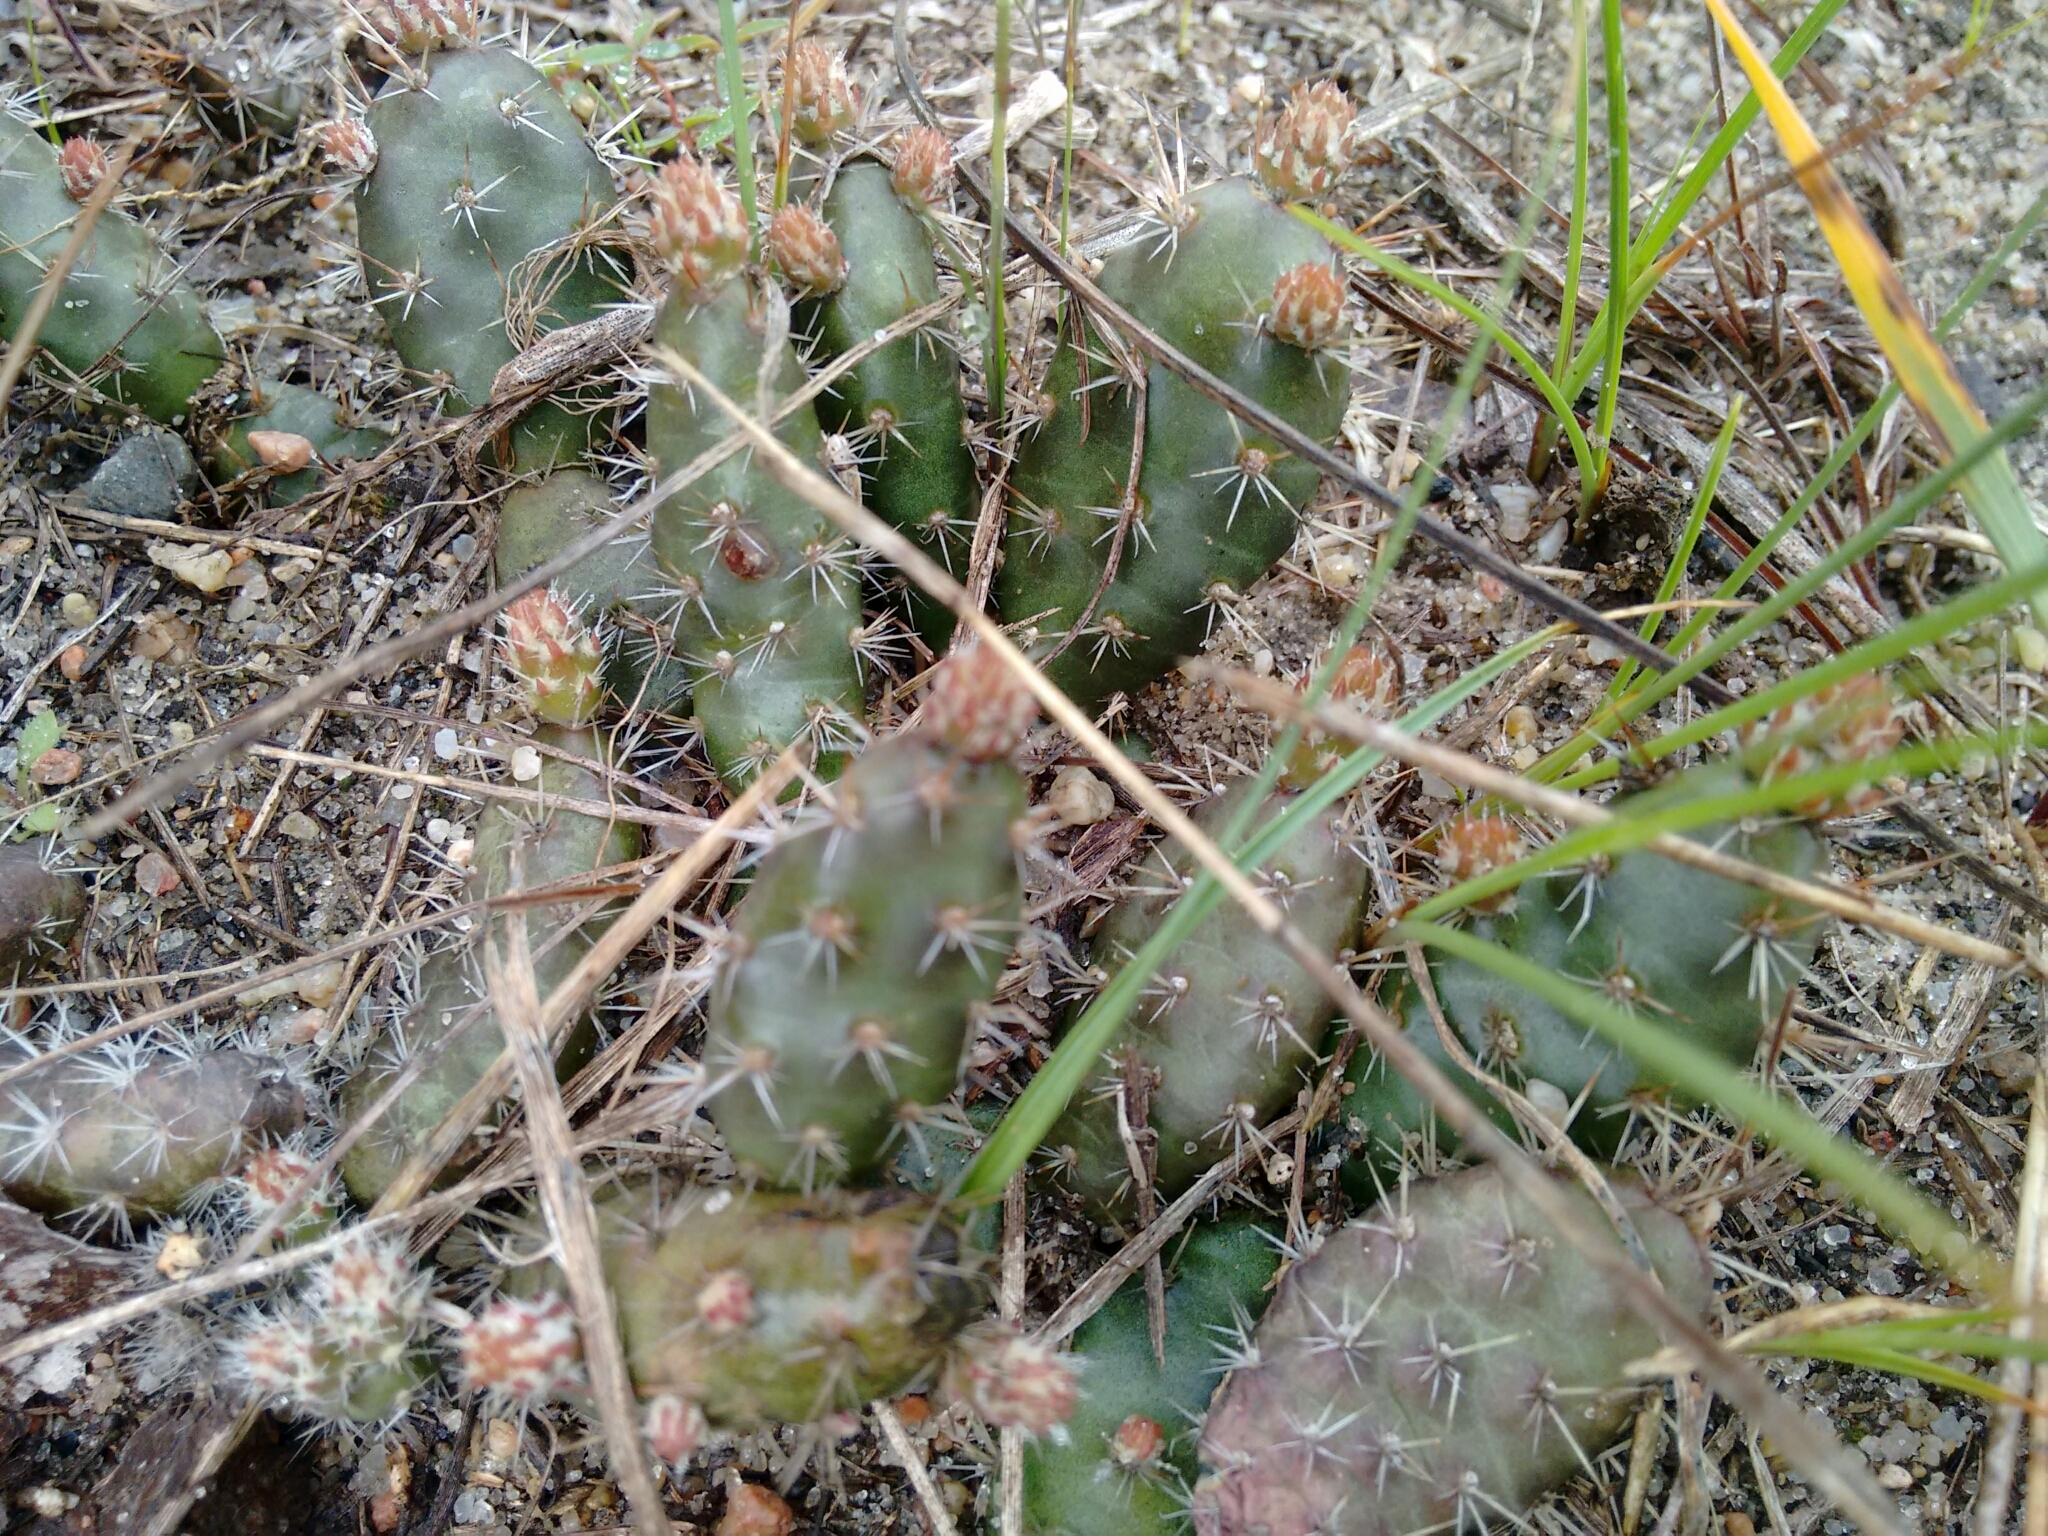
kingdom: Plantae
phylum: Tracheophyta
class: Magnoliopsida
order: Caryophyllales
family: Cactaceae
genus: Opuntia
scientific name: Opuntia fragilis
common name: Brittle cactus
